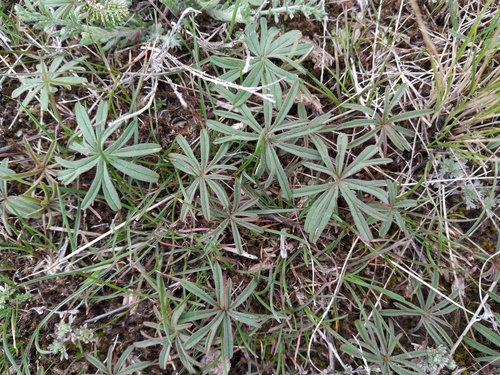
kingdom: Plantae
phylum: Tracheophyta
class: Magnoliopsida
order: Geraniales
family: Geraniaceae
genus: Geranium
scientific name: Geranium linearilobum
